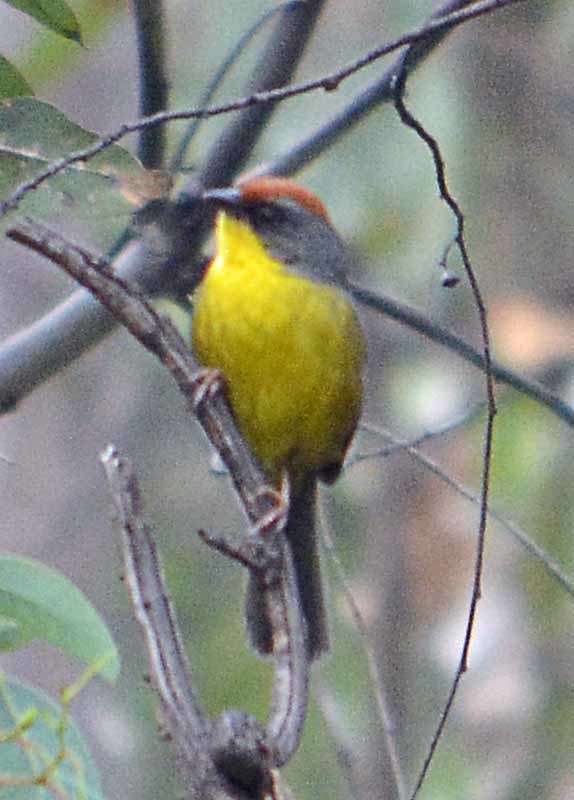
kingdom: Animalia
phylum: Chordata
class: Aves
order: Passeriformes
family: Passerellidae
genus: Atlapetes
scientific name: Atlapetes pileatus
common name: Rufous-capped brush-finch
